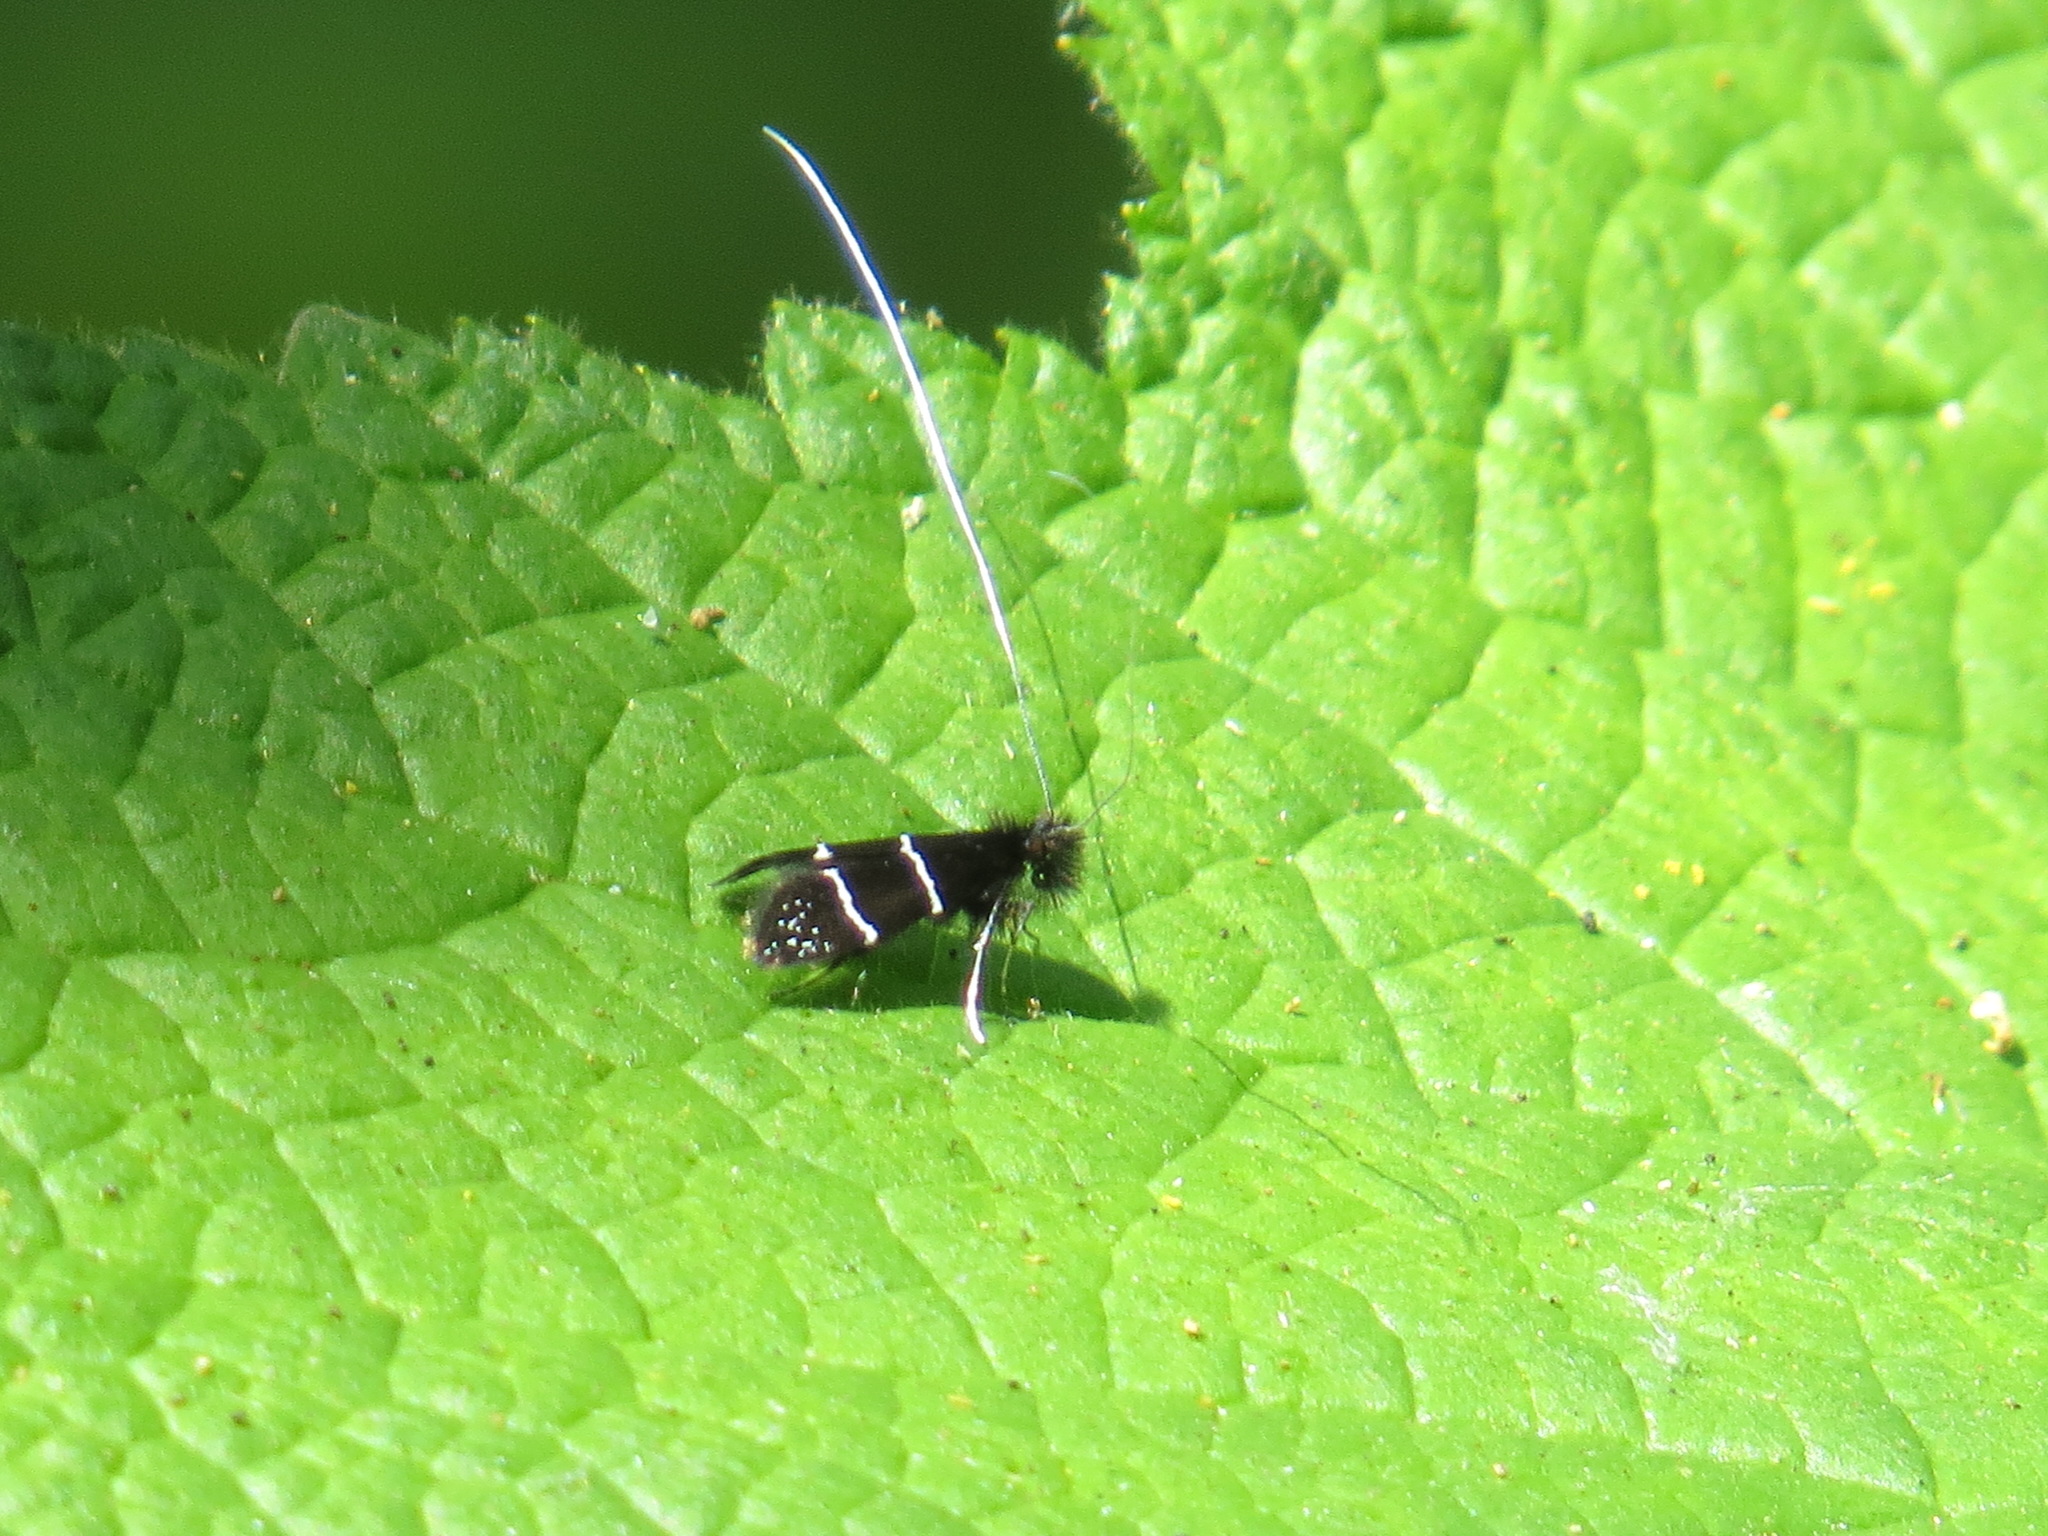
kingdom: Animalia
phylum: Arthropoda
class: Insecta
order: Lepidoptera
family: Adelidae
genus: Adela
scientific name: Adela septentrionella
